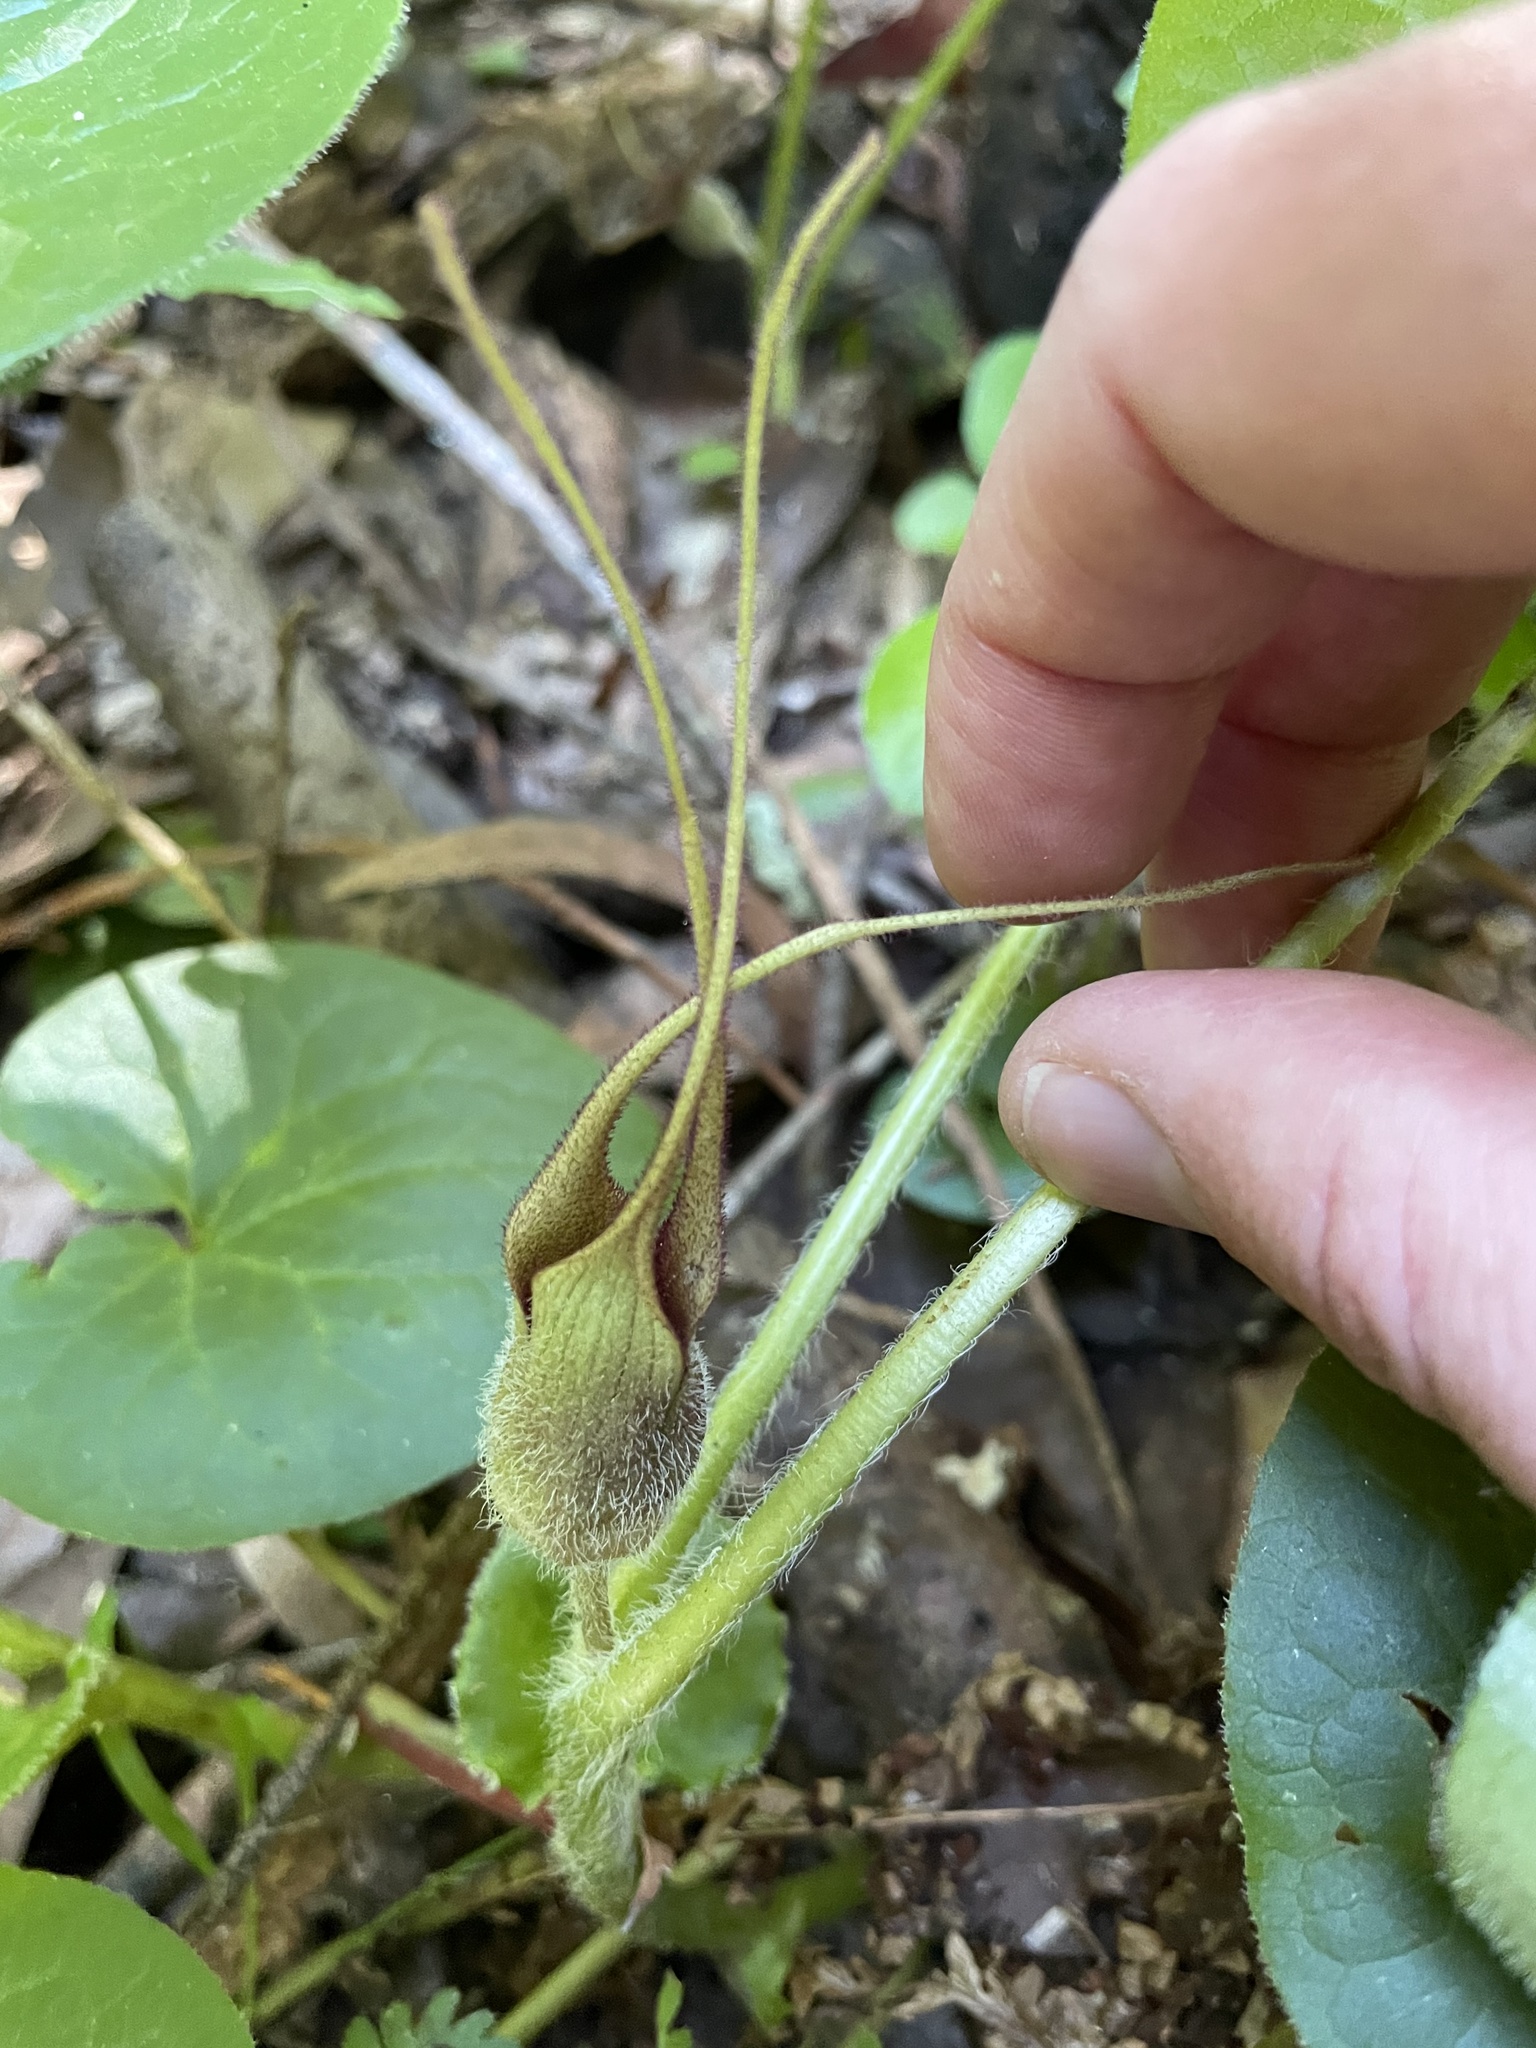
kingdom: Plantae
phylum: Tracheophyta
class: Magnoliopsida
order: Piperales
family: Aristolochiaceae
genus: Asarum
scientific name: Asarum caudatum
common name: Wild ginger
